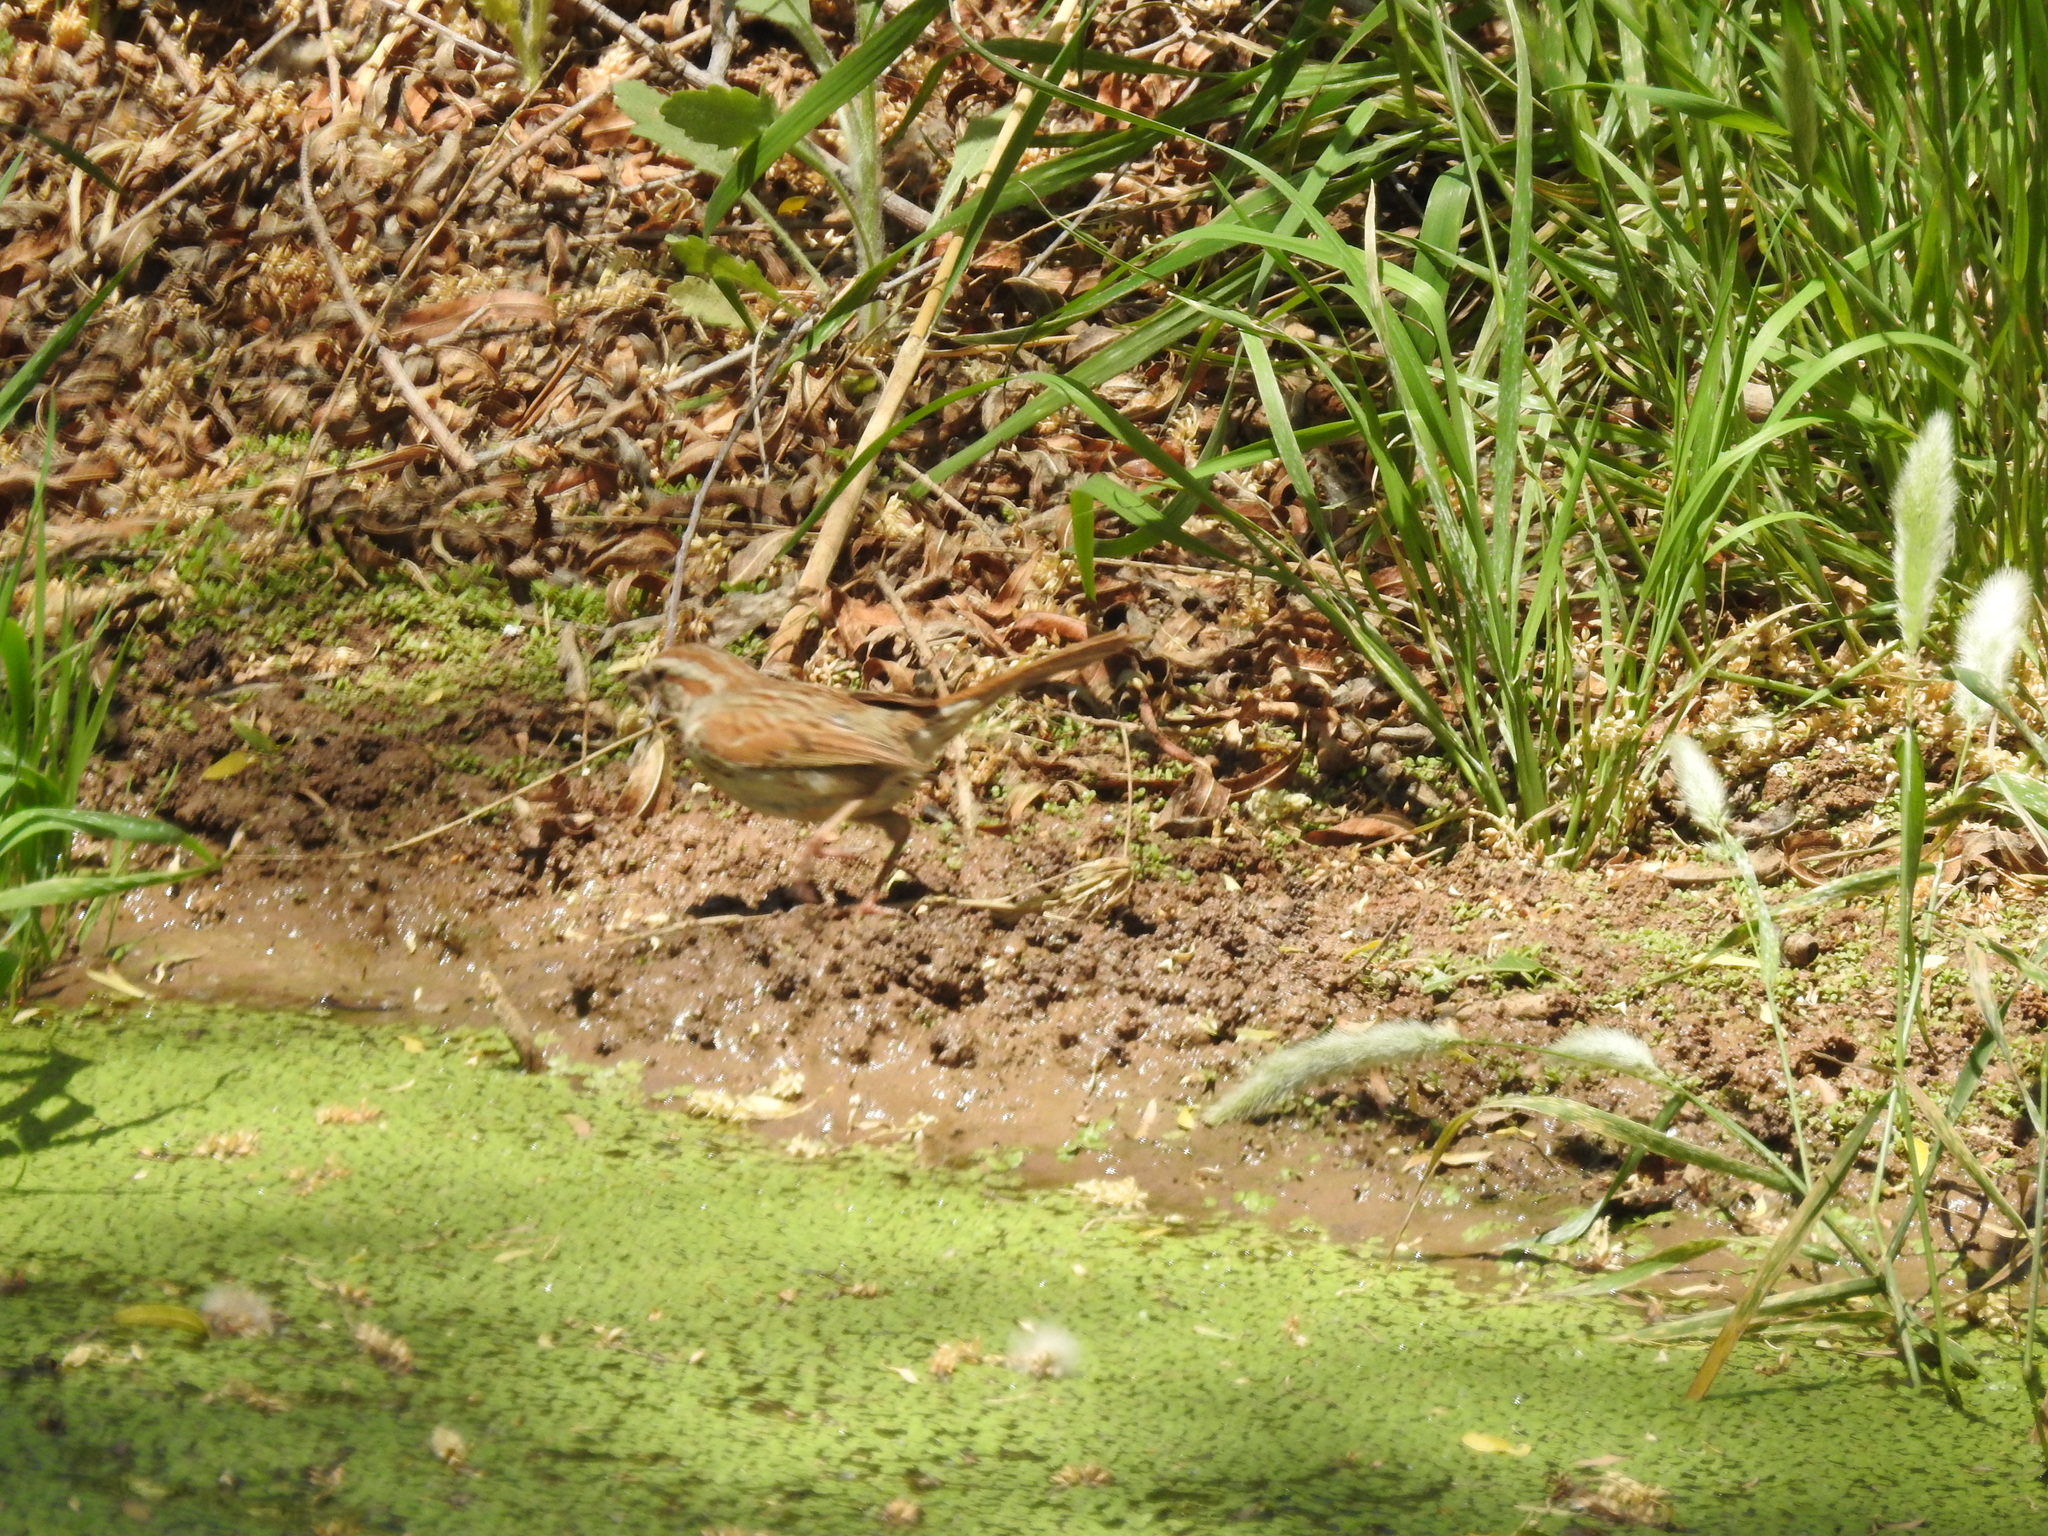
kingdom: Animalia
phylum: Chordata
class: Aves
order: Passeriformes
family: Passerellidae
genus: Melospiza
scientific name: Melospiza melodia
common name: Song sparrow
